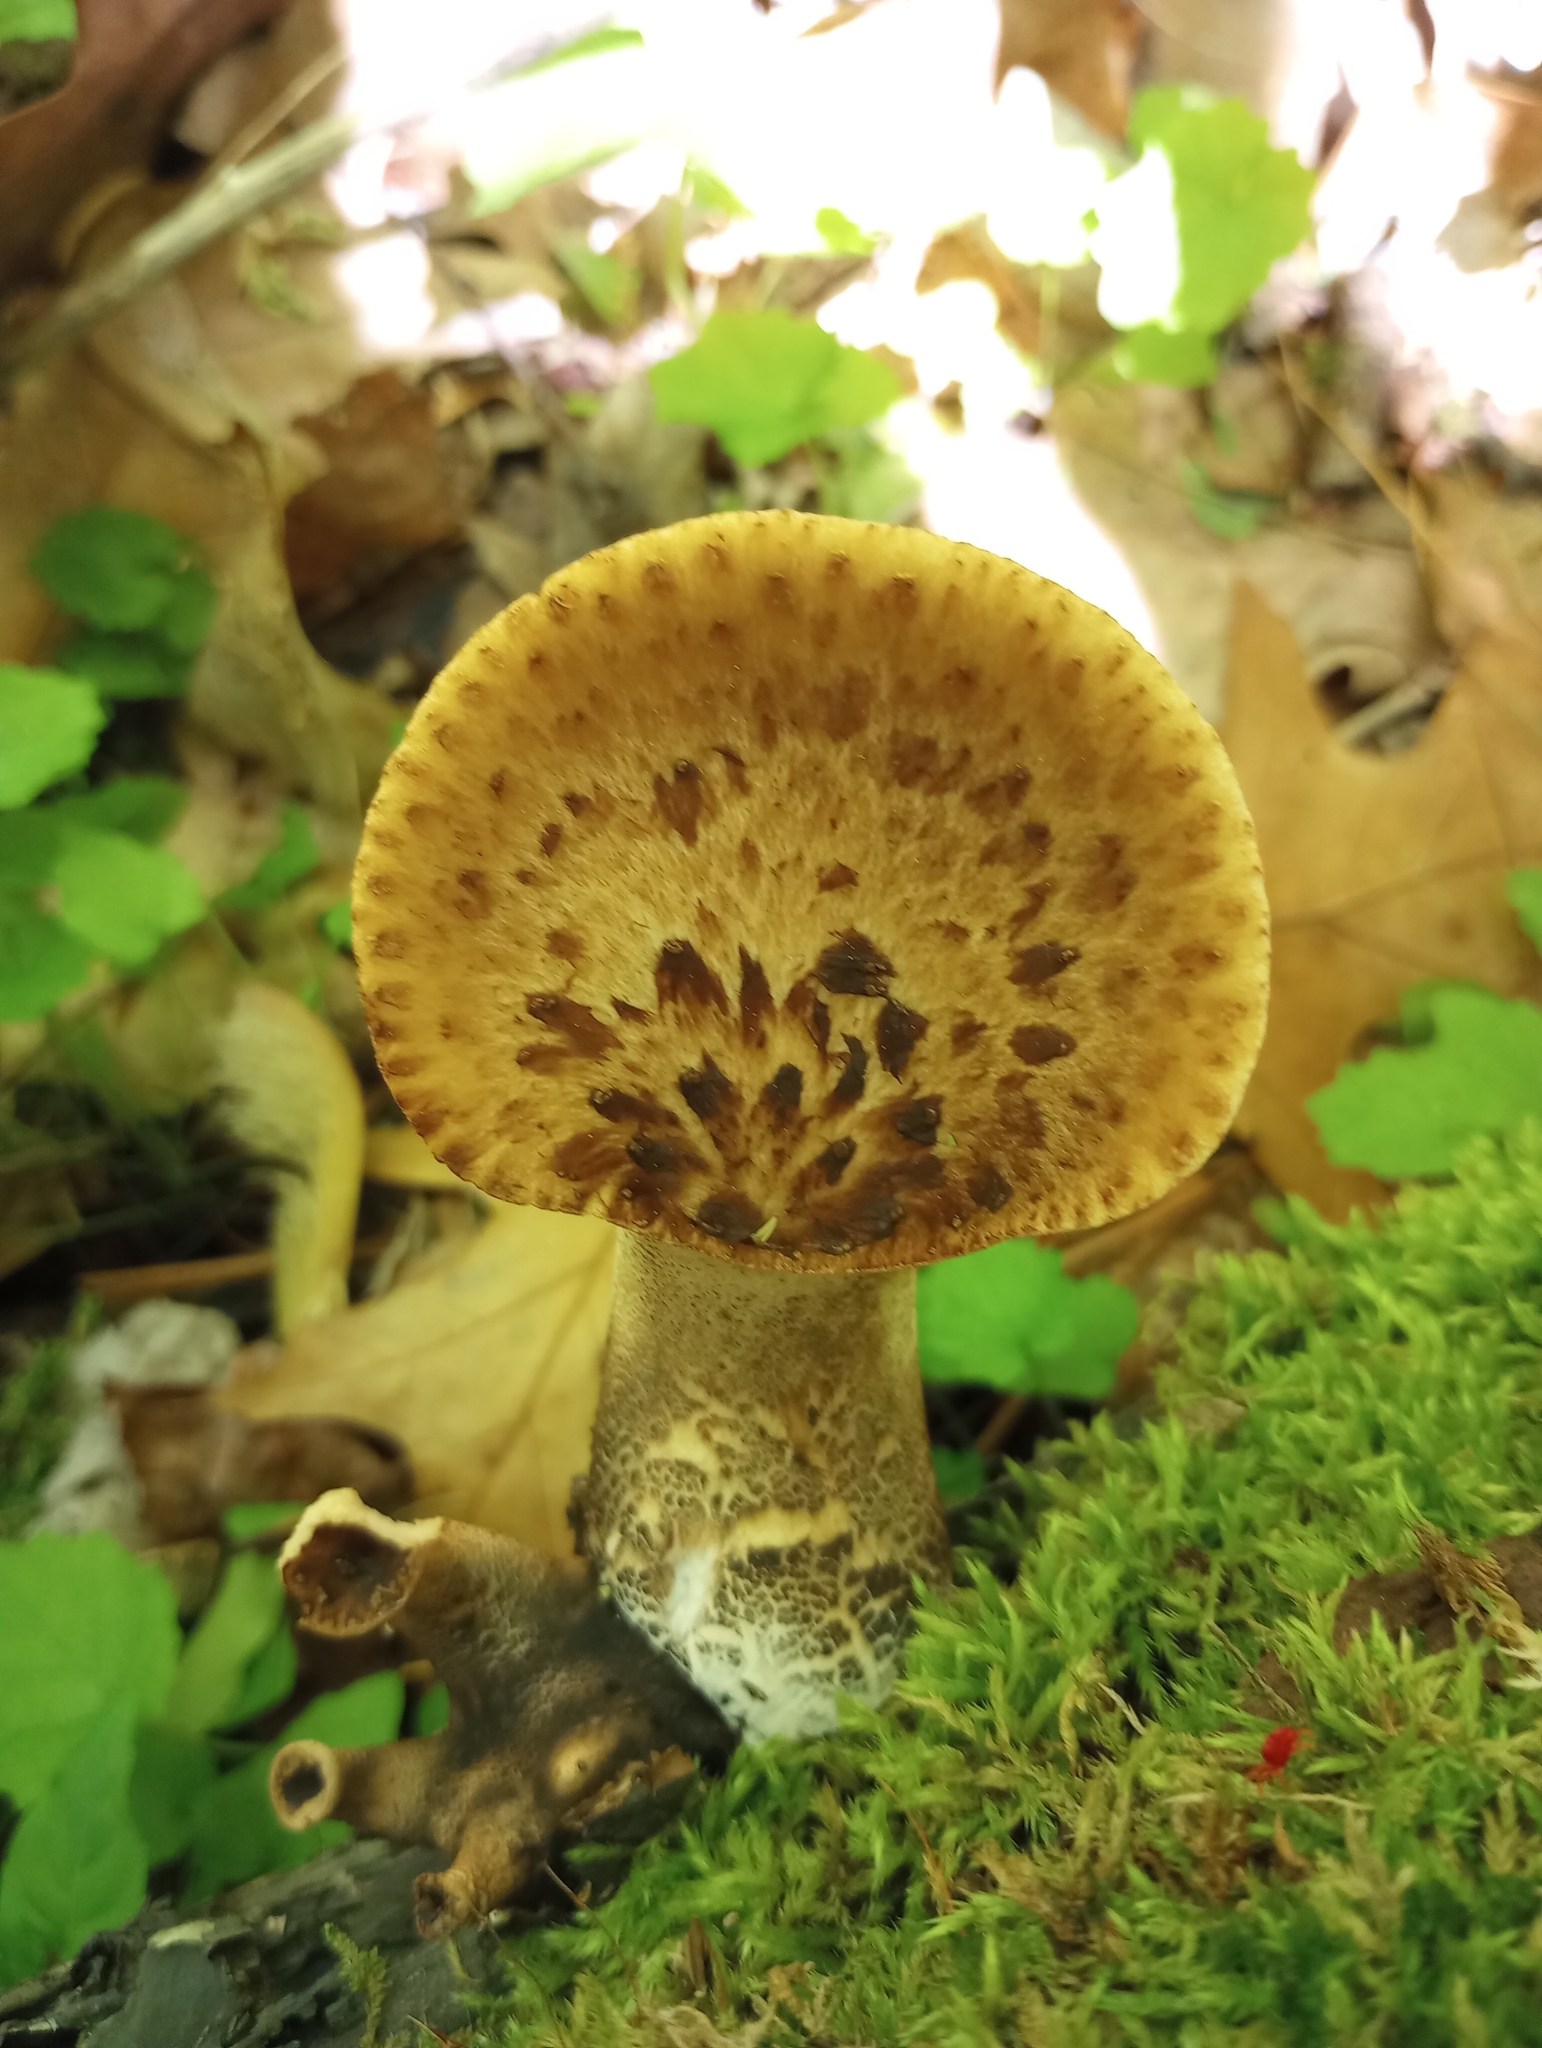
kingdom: Fungi
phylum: Basidiomycota
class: Agaricomycetes
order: Polyporales
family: Polyporaceae
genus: Cerioporus
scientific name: Cerioporus squamosus
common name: Dryad's saddle
